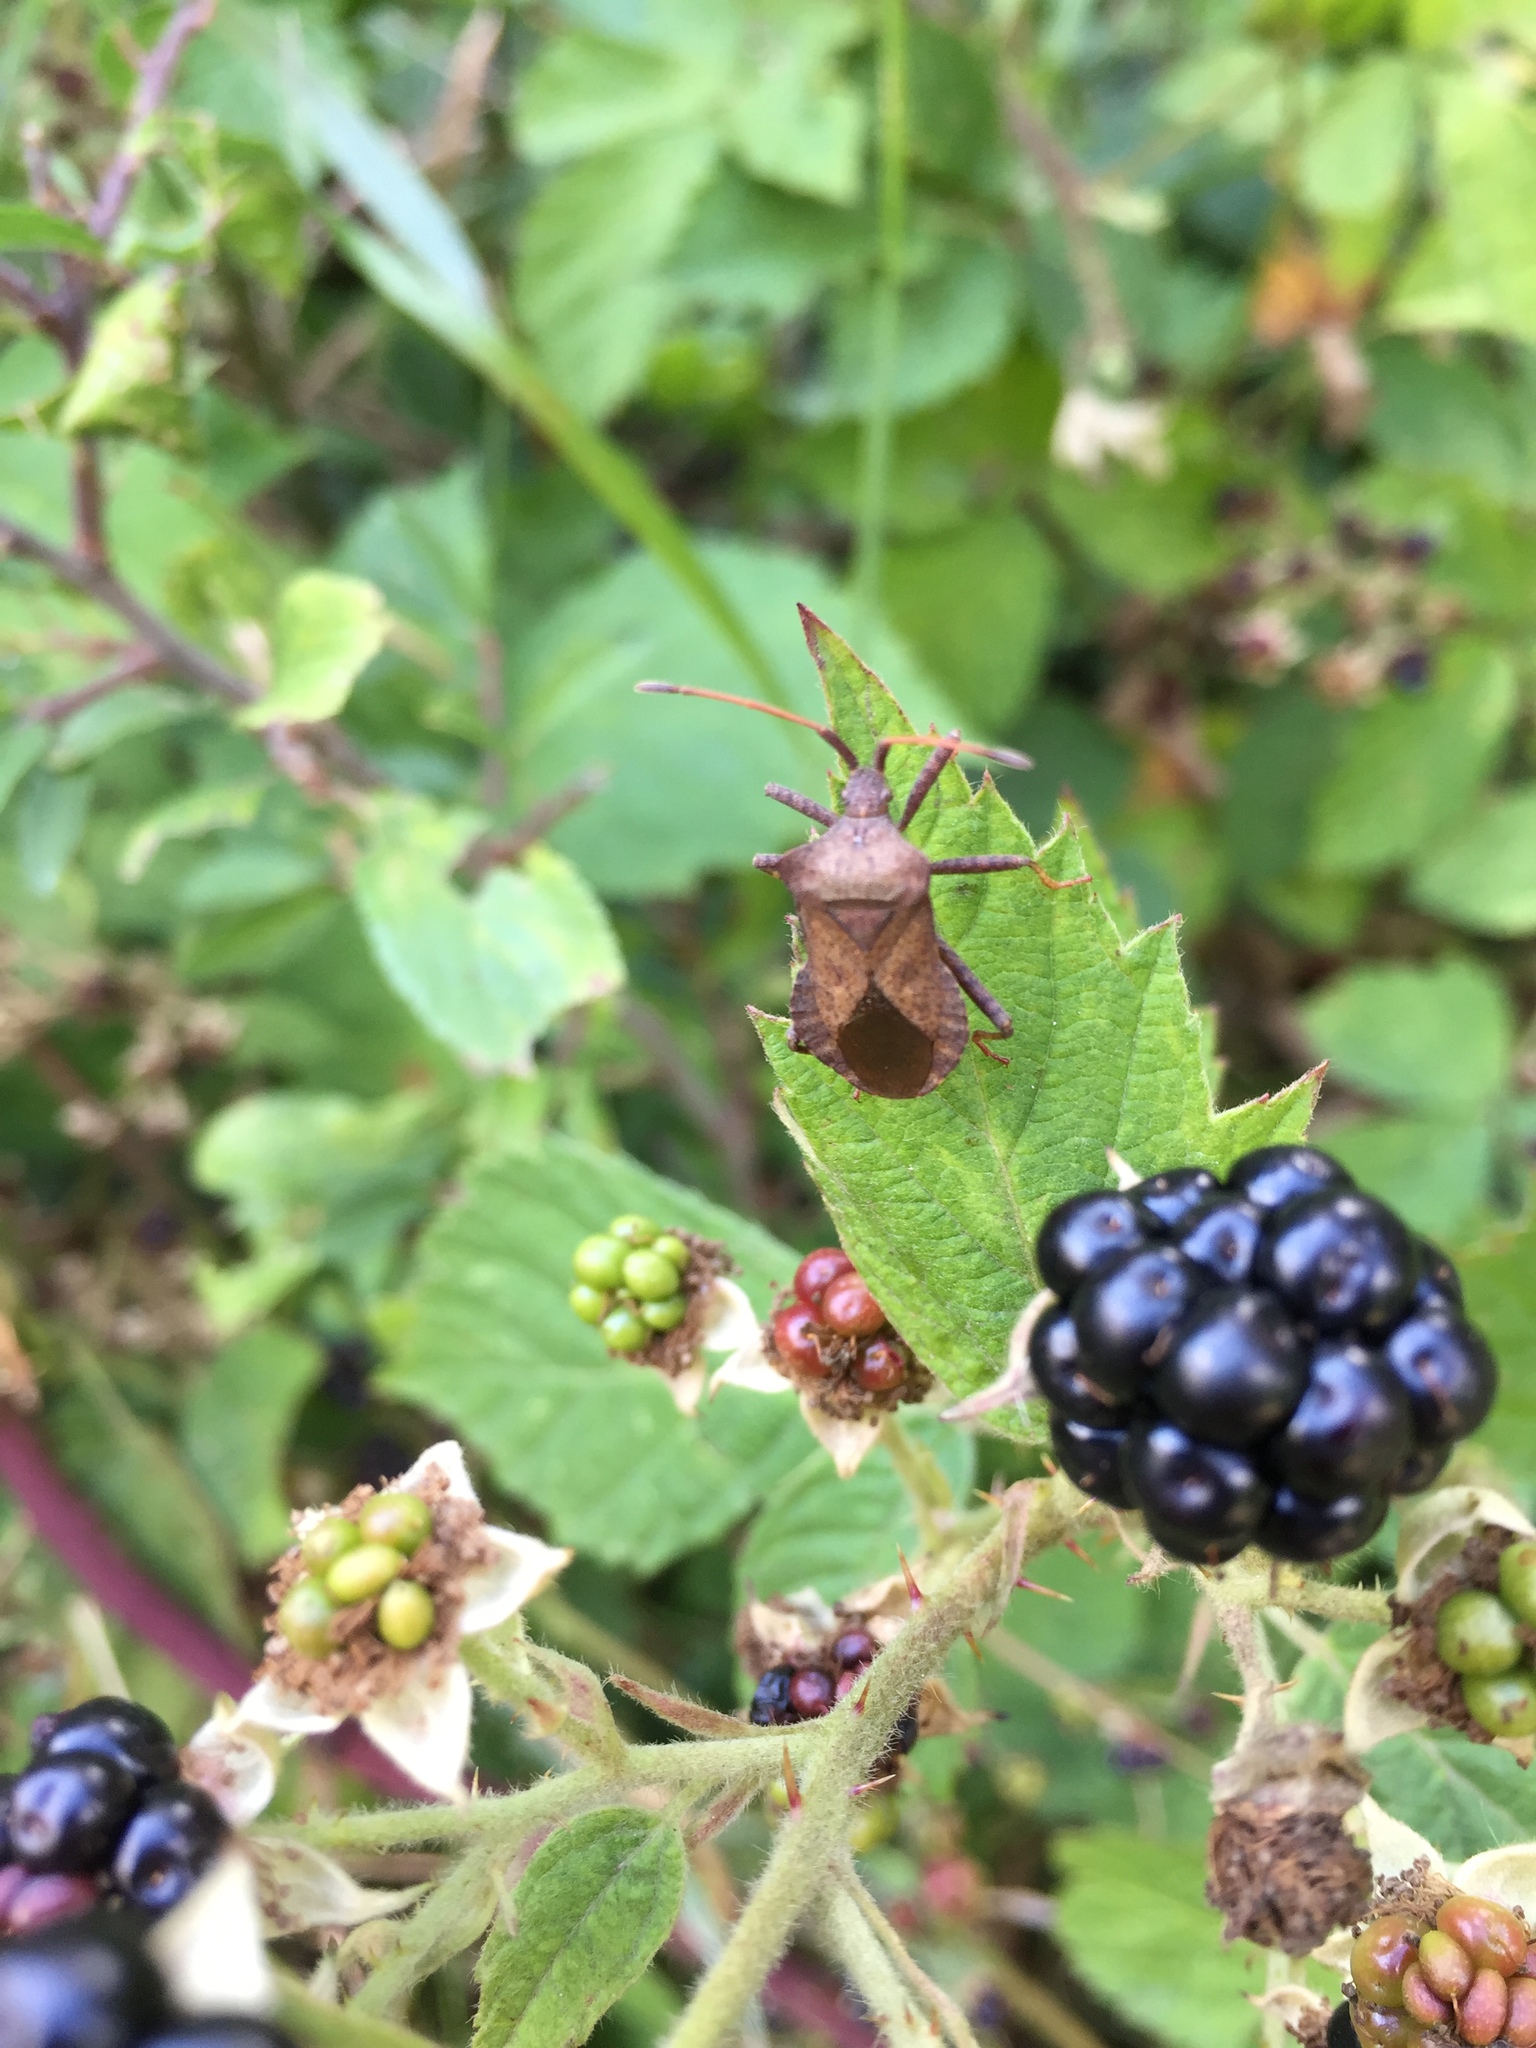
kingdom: Animalia
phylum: Arthropoda
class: Insecta
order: Hemiptera
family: Coreidae
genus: Coreus
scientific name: Coreus marginatus
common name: Dock bug
